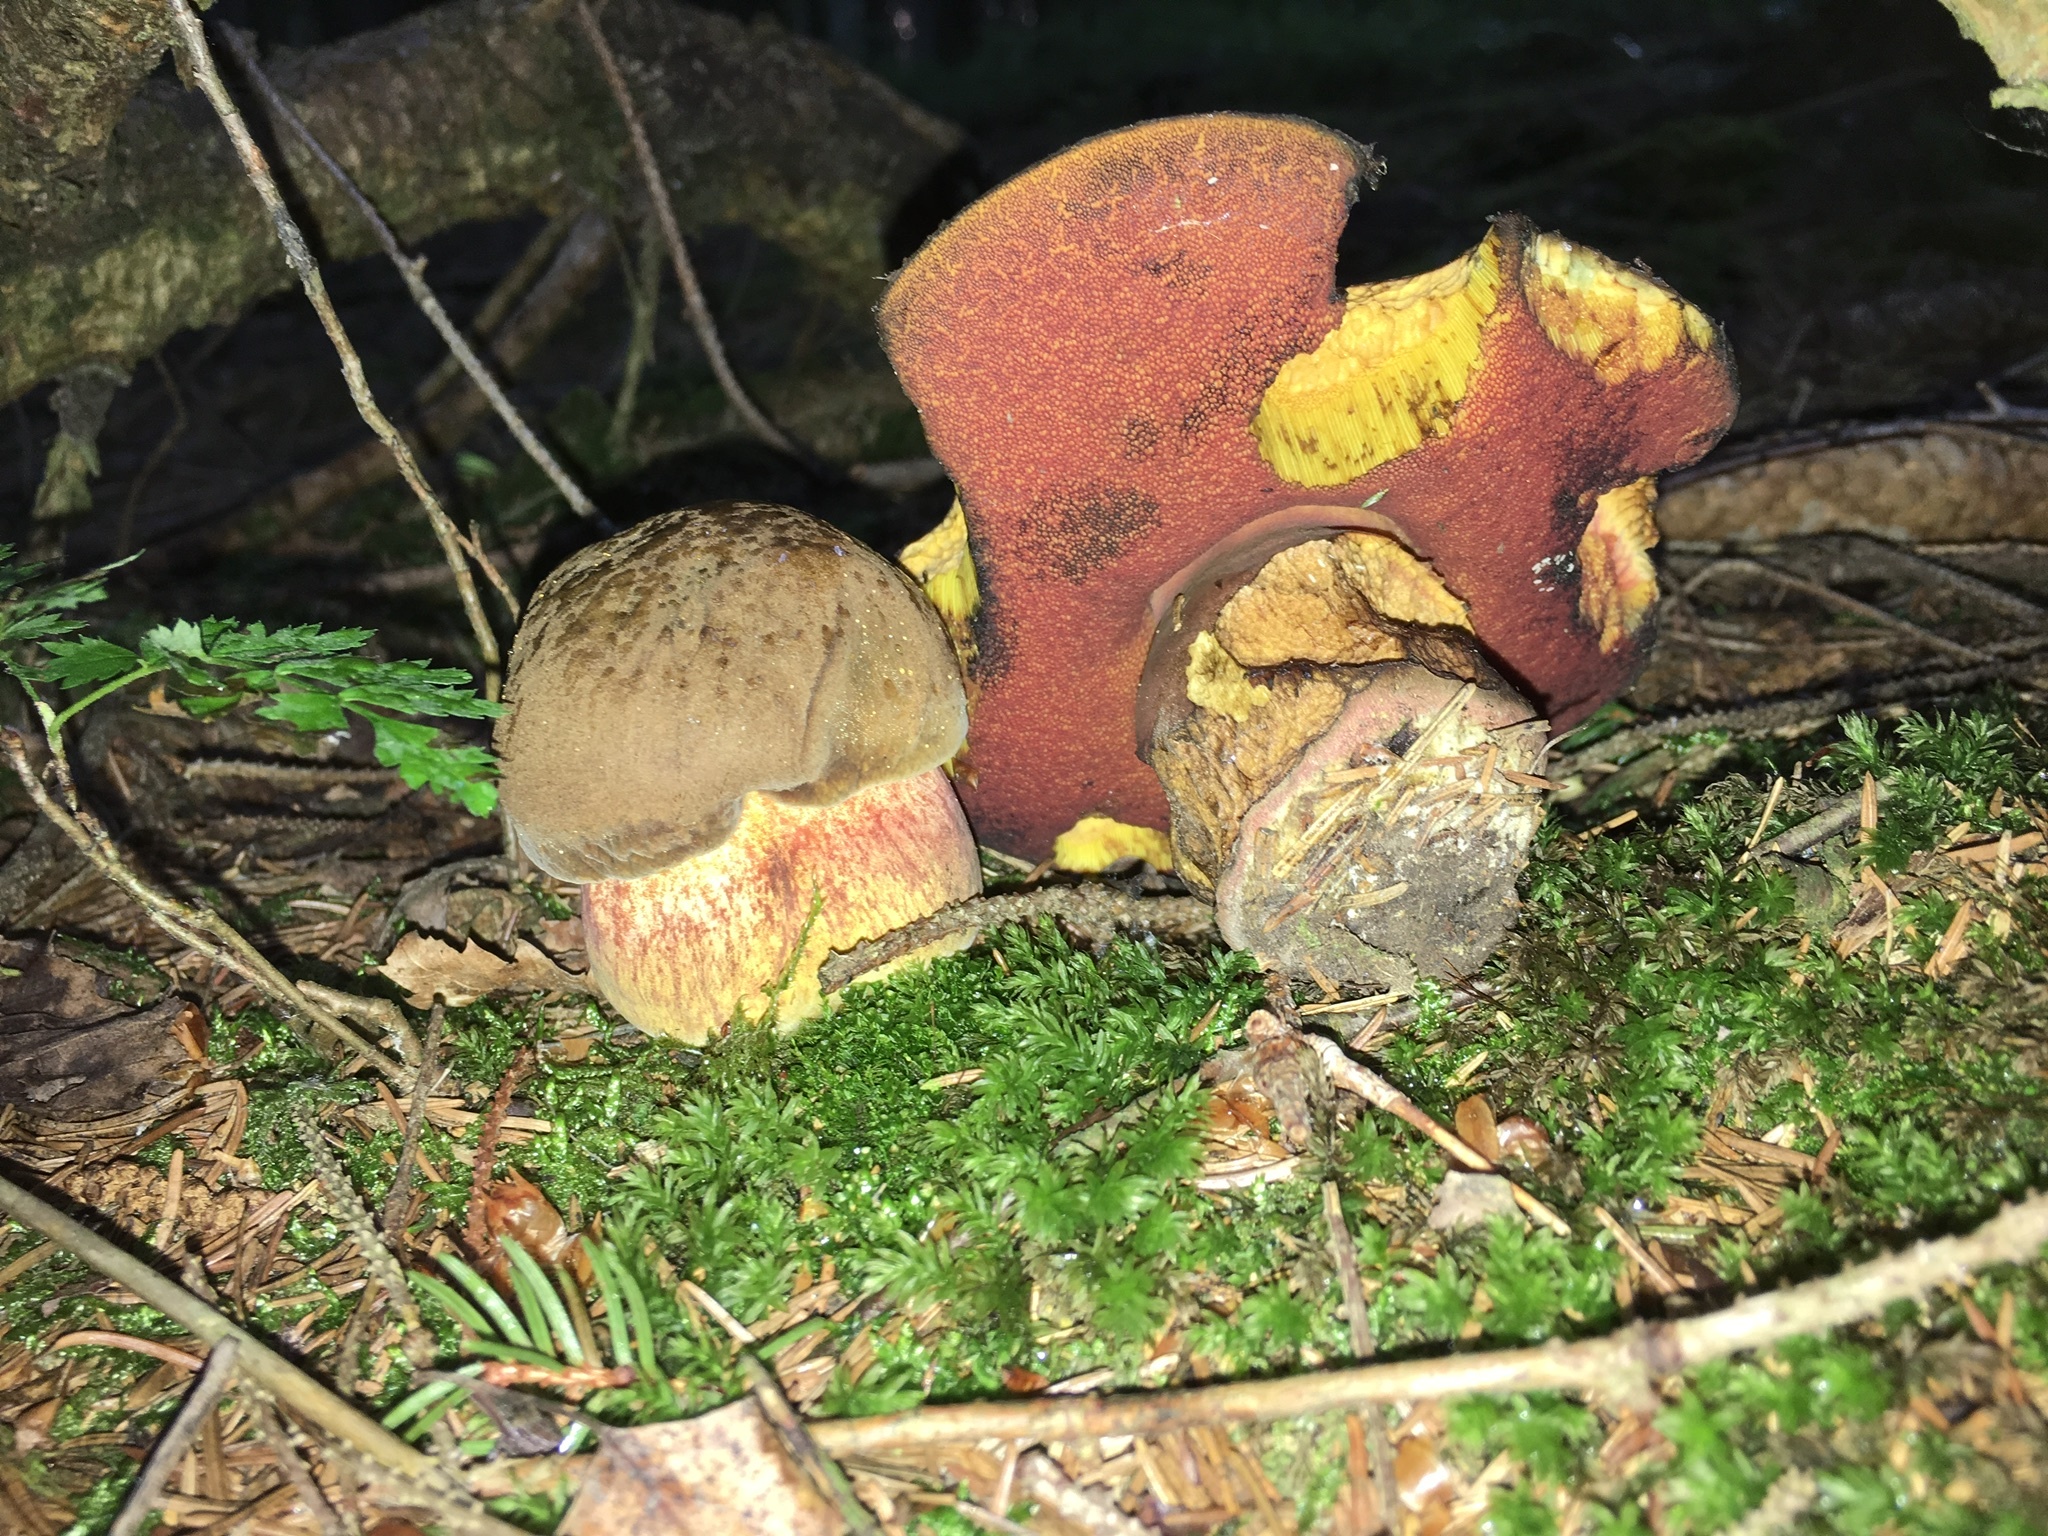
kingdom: Fungi
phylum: Basidiomycota
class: Agaricomycetes
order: Boletales
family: Boletaceae
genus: Neoboletus
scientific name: Neoboletus erythropus
